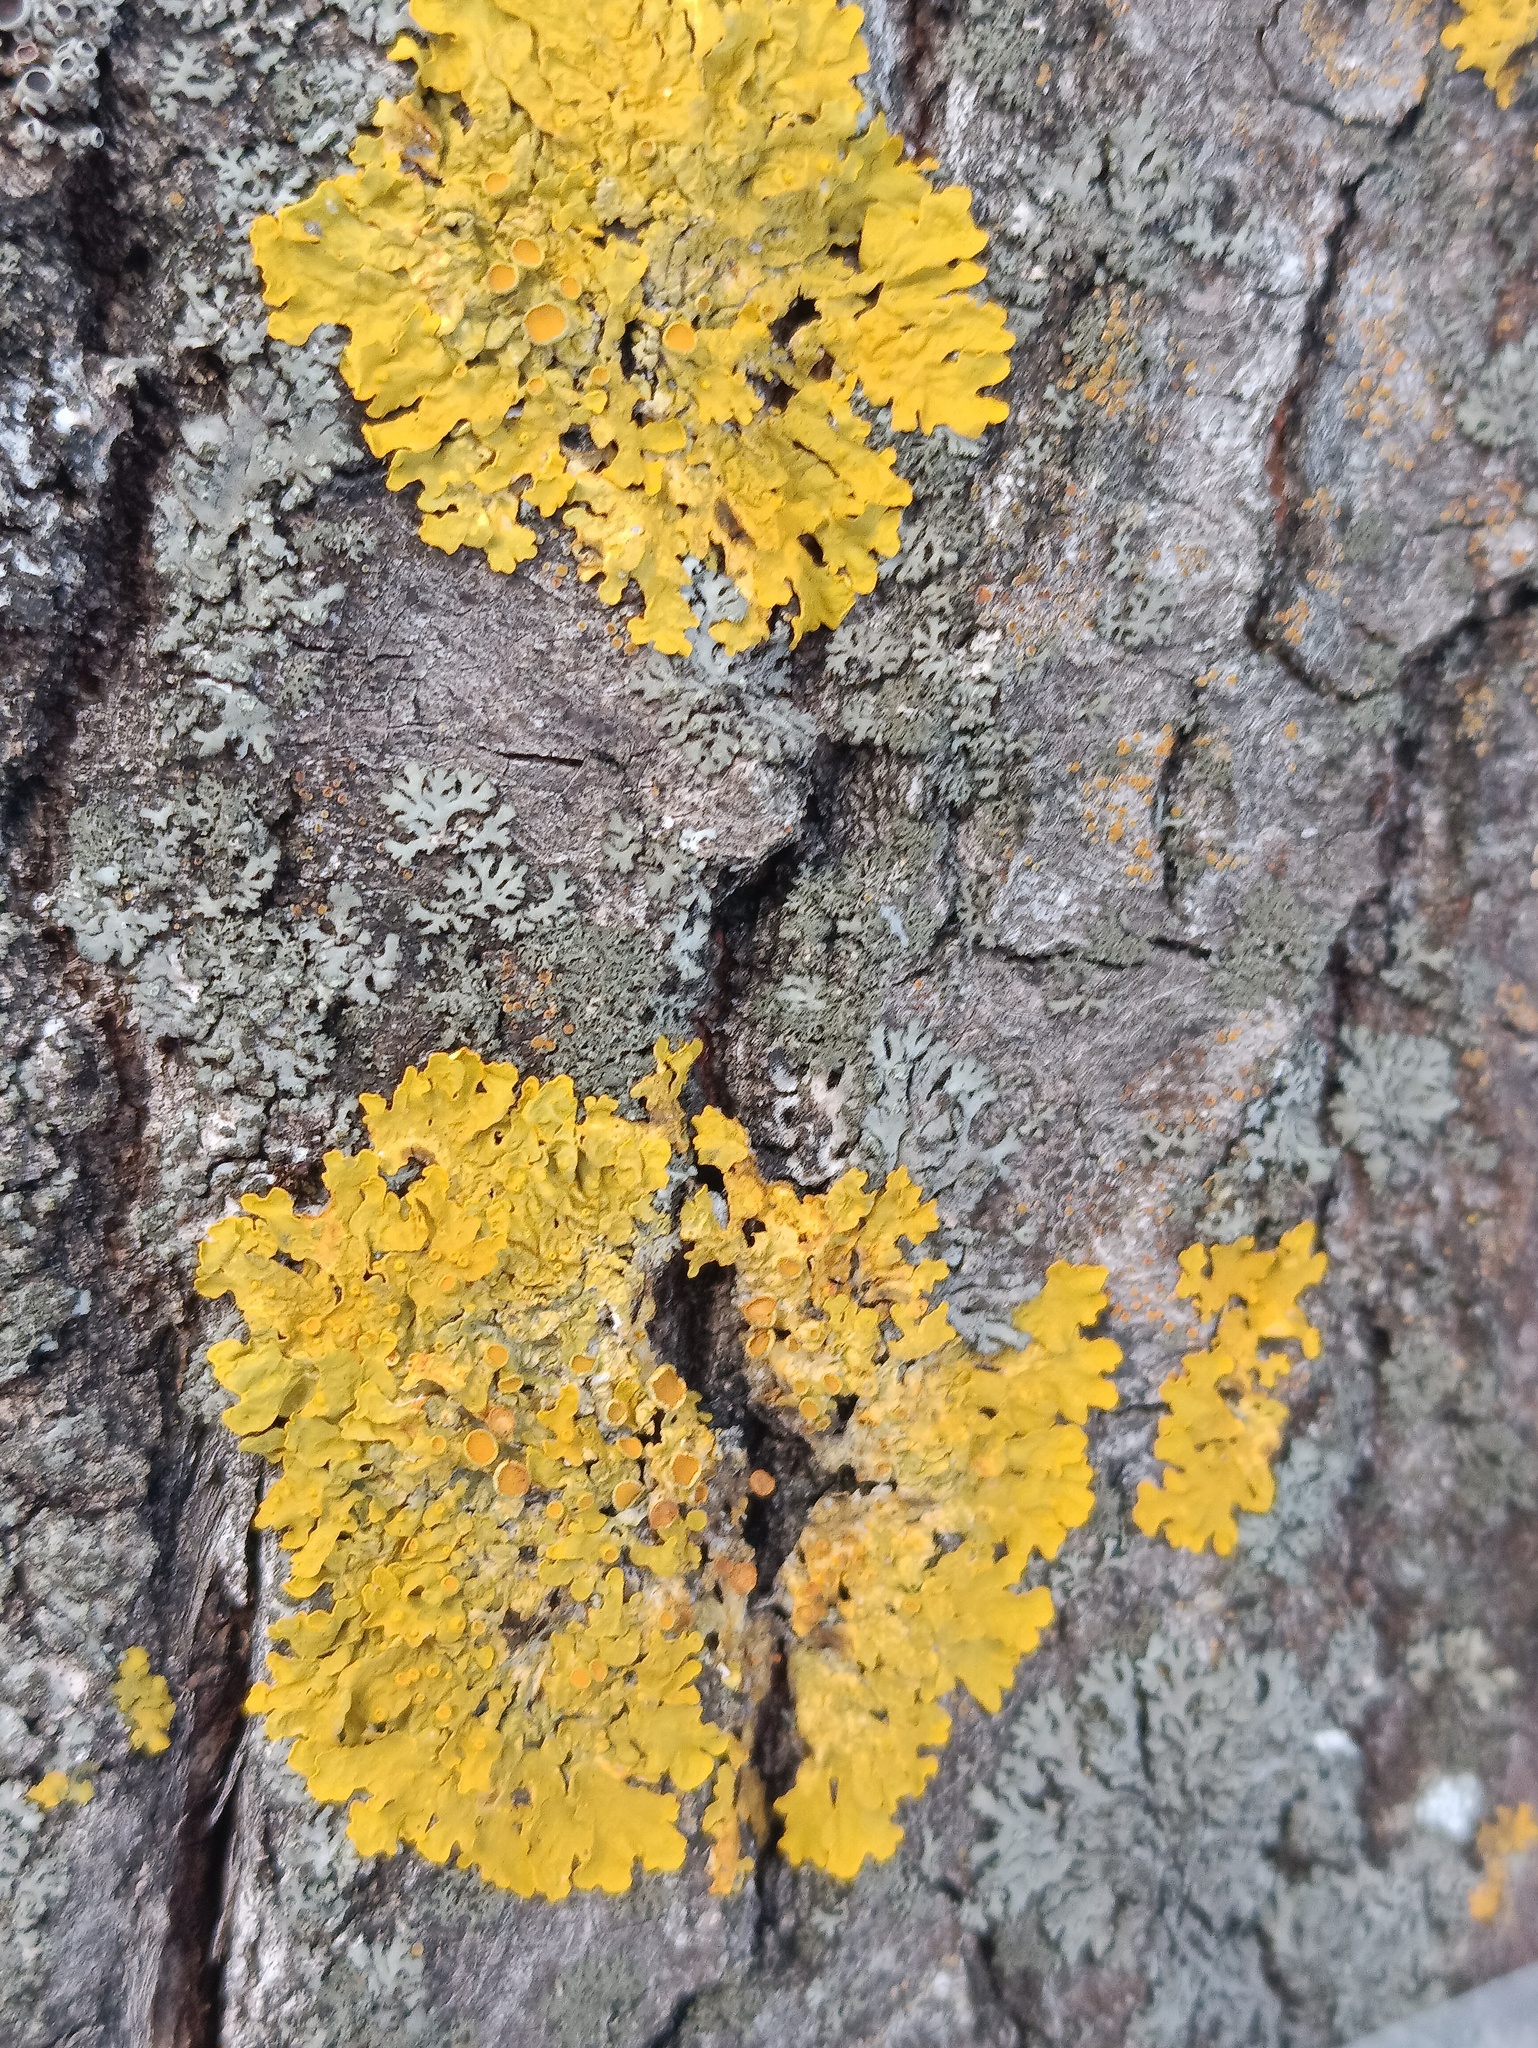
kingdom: Fungi
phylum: Ascomycota
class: Lecanoromycetes
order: Teloschistales
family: Teloschistaceae
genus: Xanthoria
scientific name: Xanthoria parietina
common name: Common orange lichen
